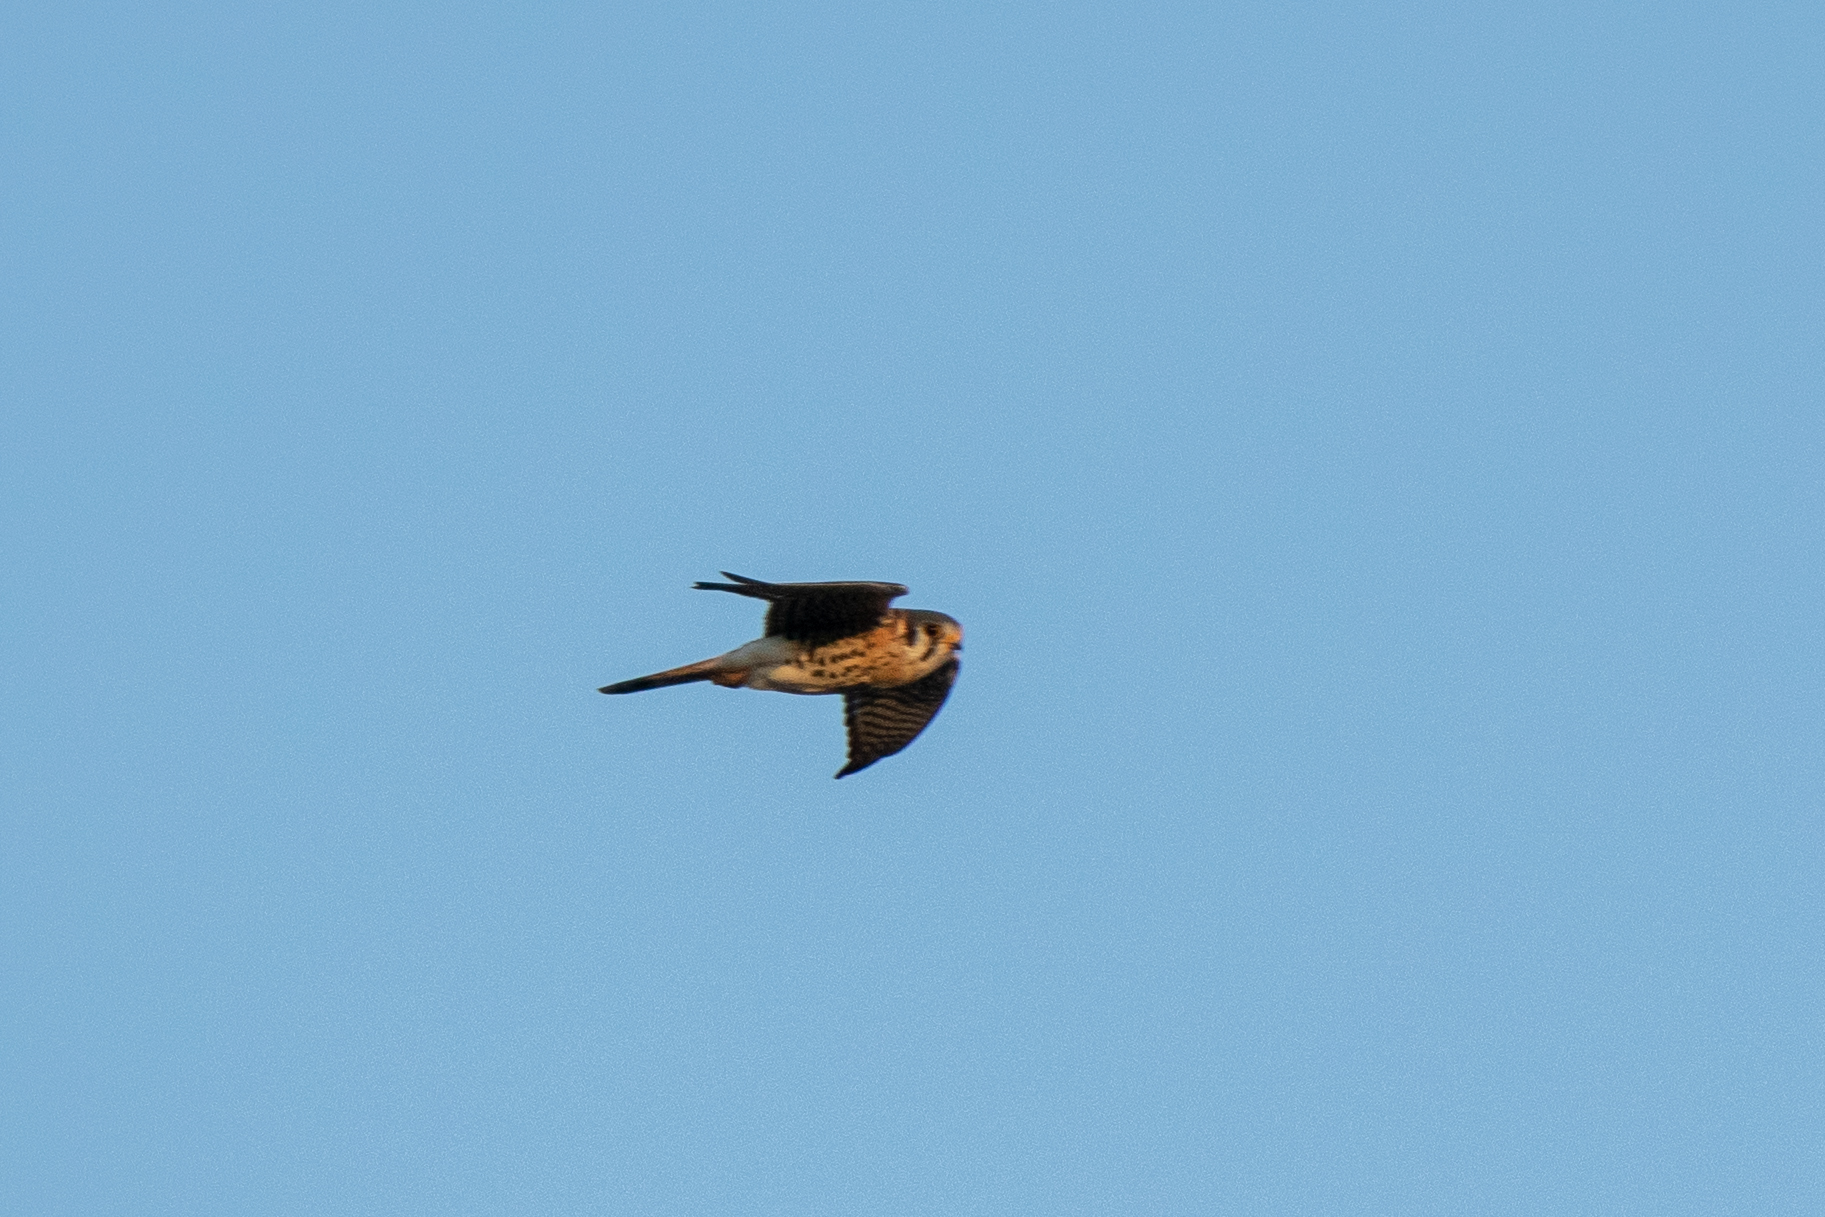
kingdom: Animalia
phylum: Chordata
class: Aves
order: Falconiformes
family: Falconidae
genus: Falco
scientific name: Falco sparverius
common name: American kestrel
